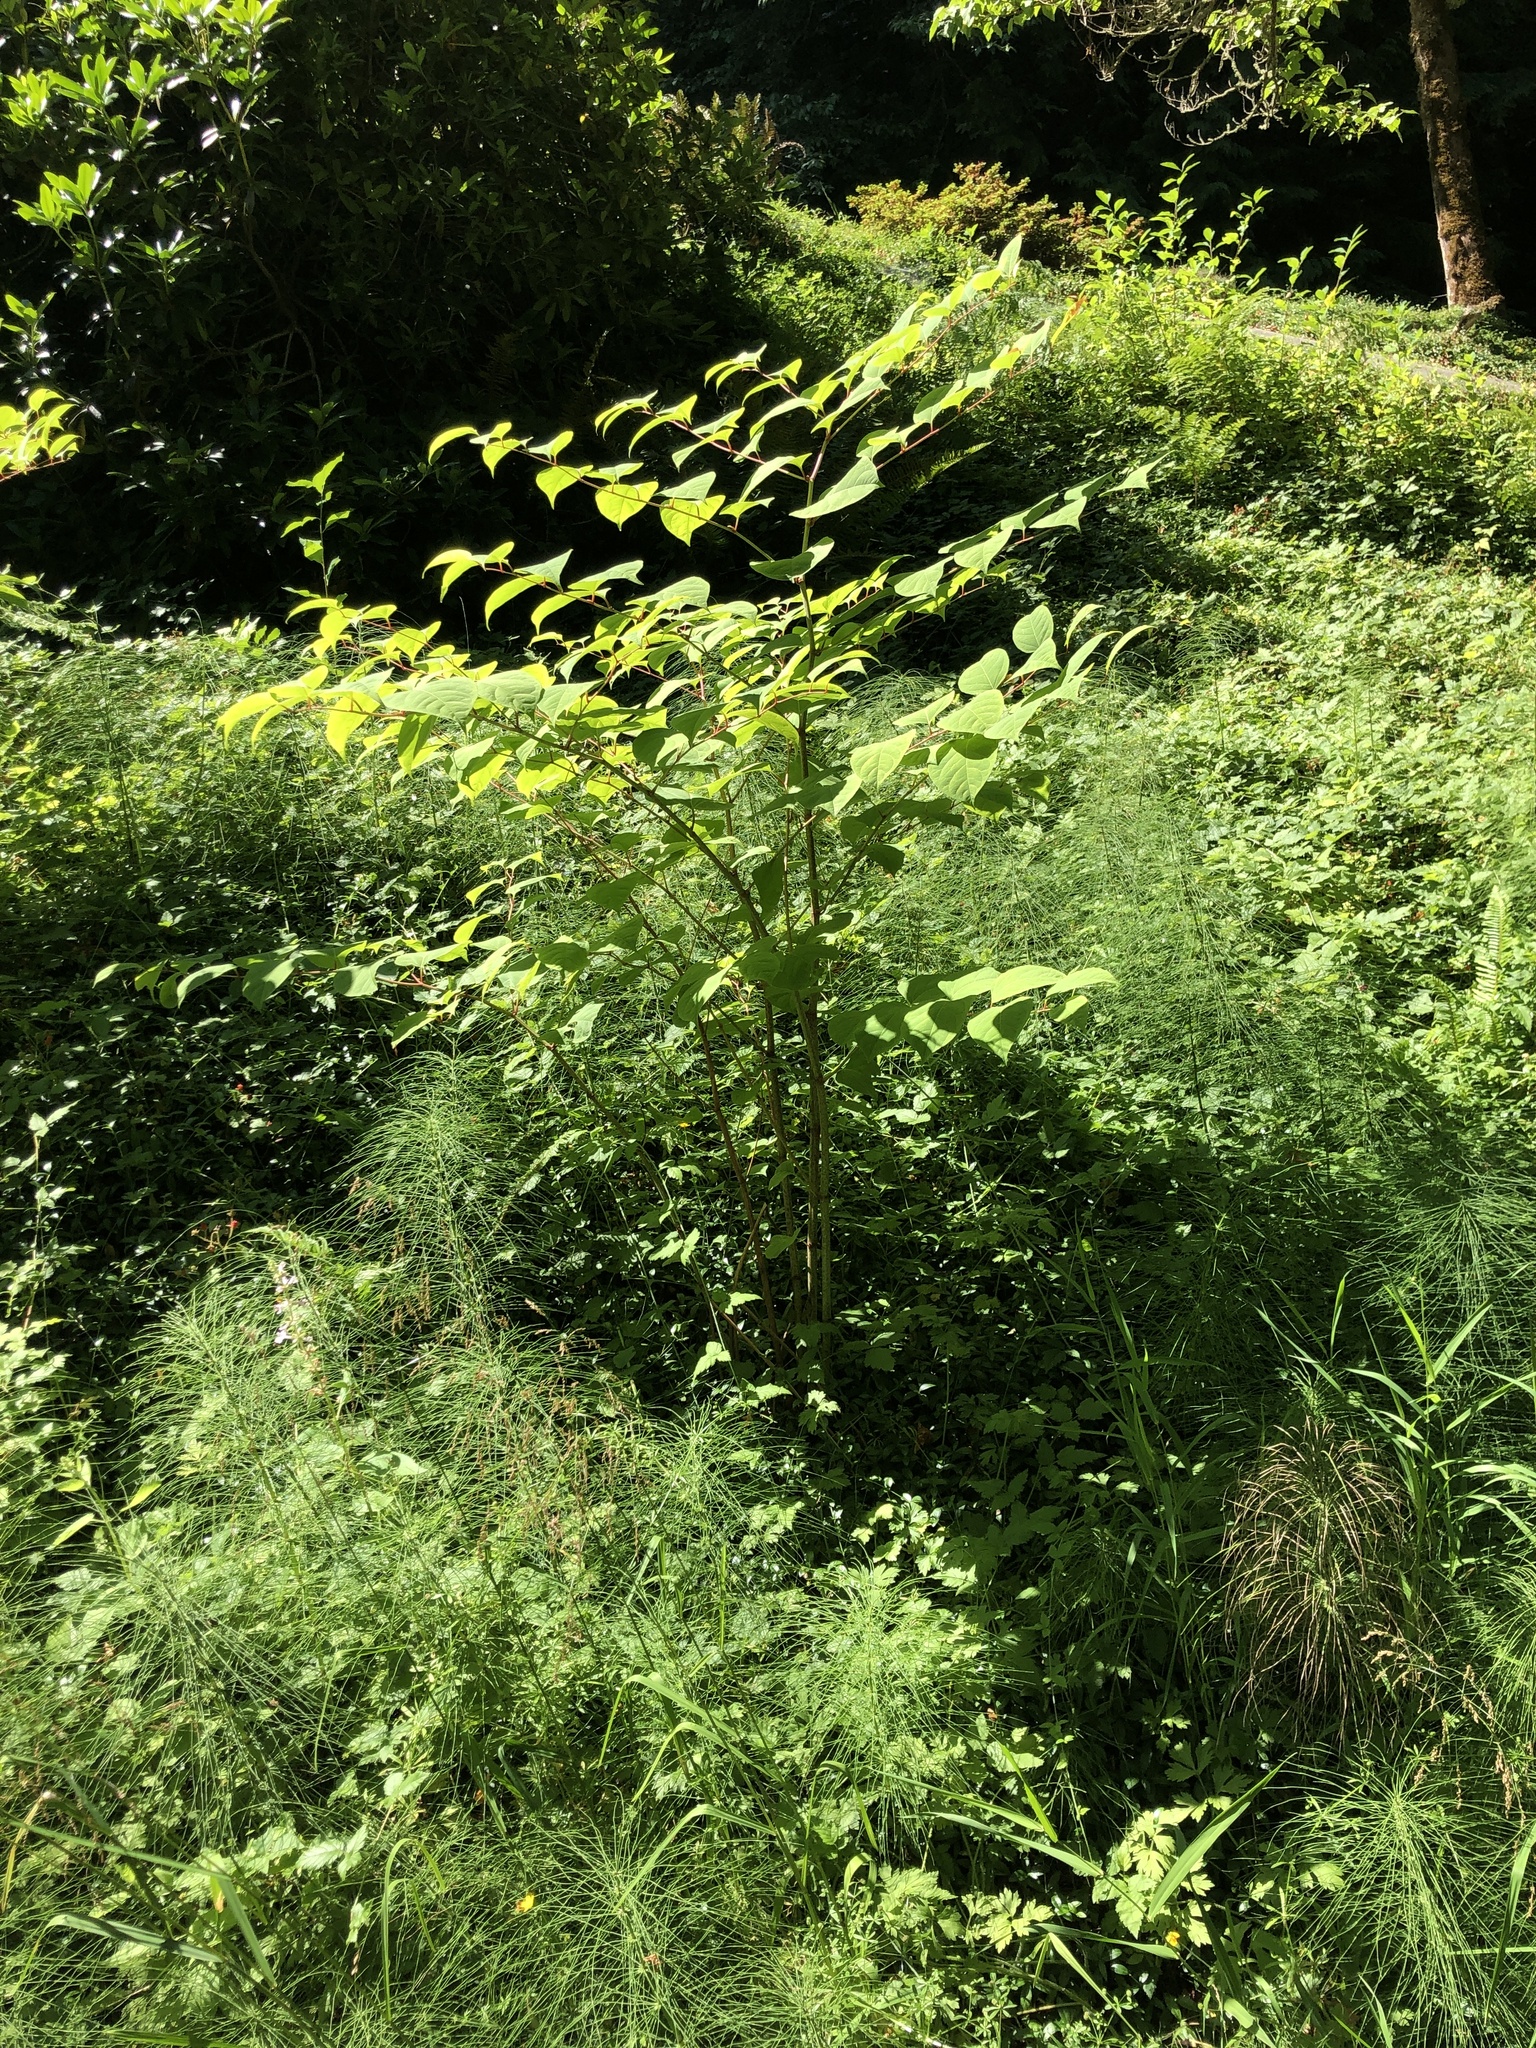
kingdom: Plantae
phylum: Tracheophyta
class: Magnoliopsida
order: Caryophyllales
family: Polygonaceae
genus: Reynoutria
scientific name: Reynoutria japonica
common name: Japanese knotweed
